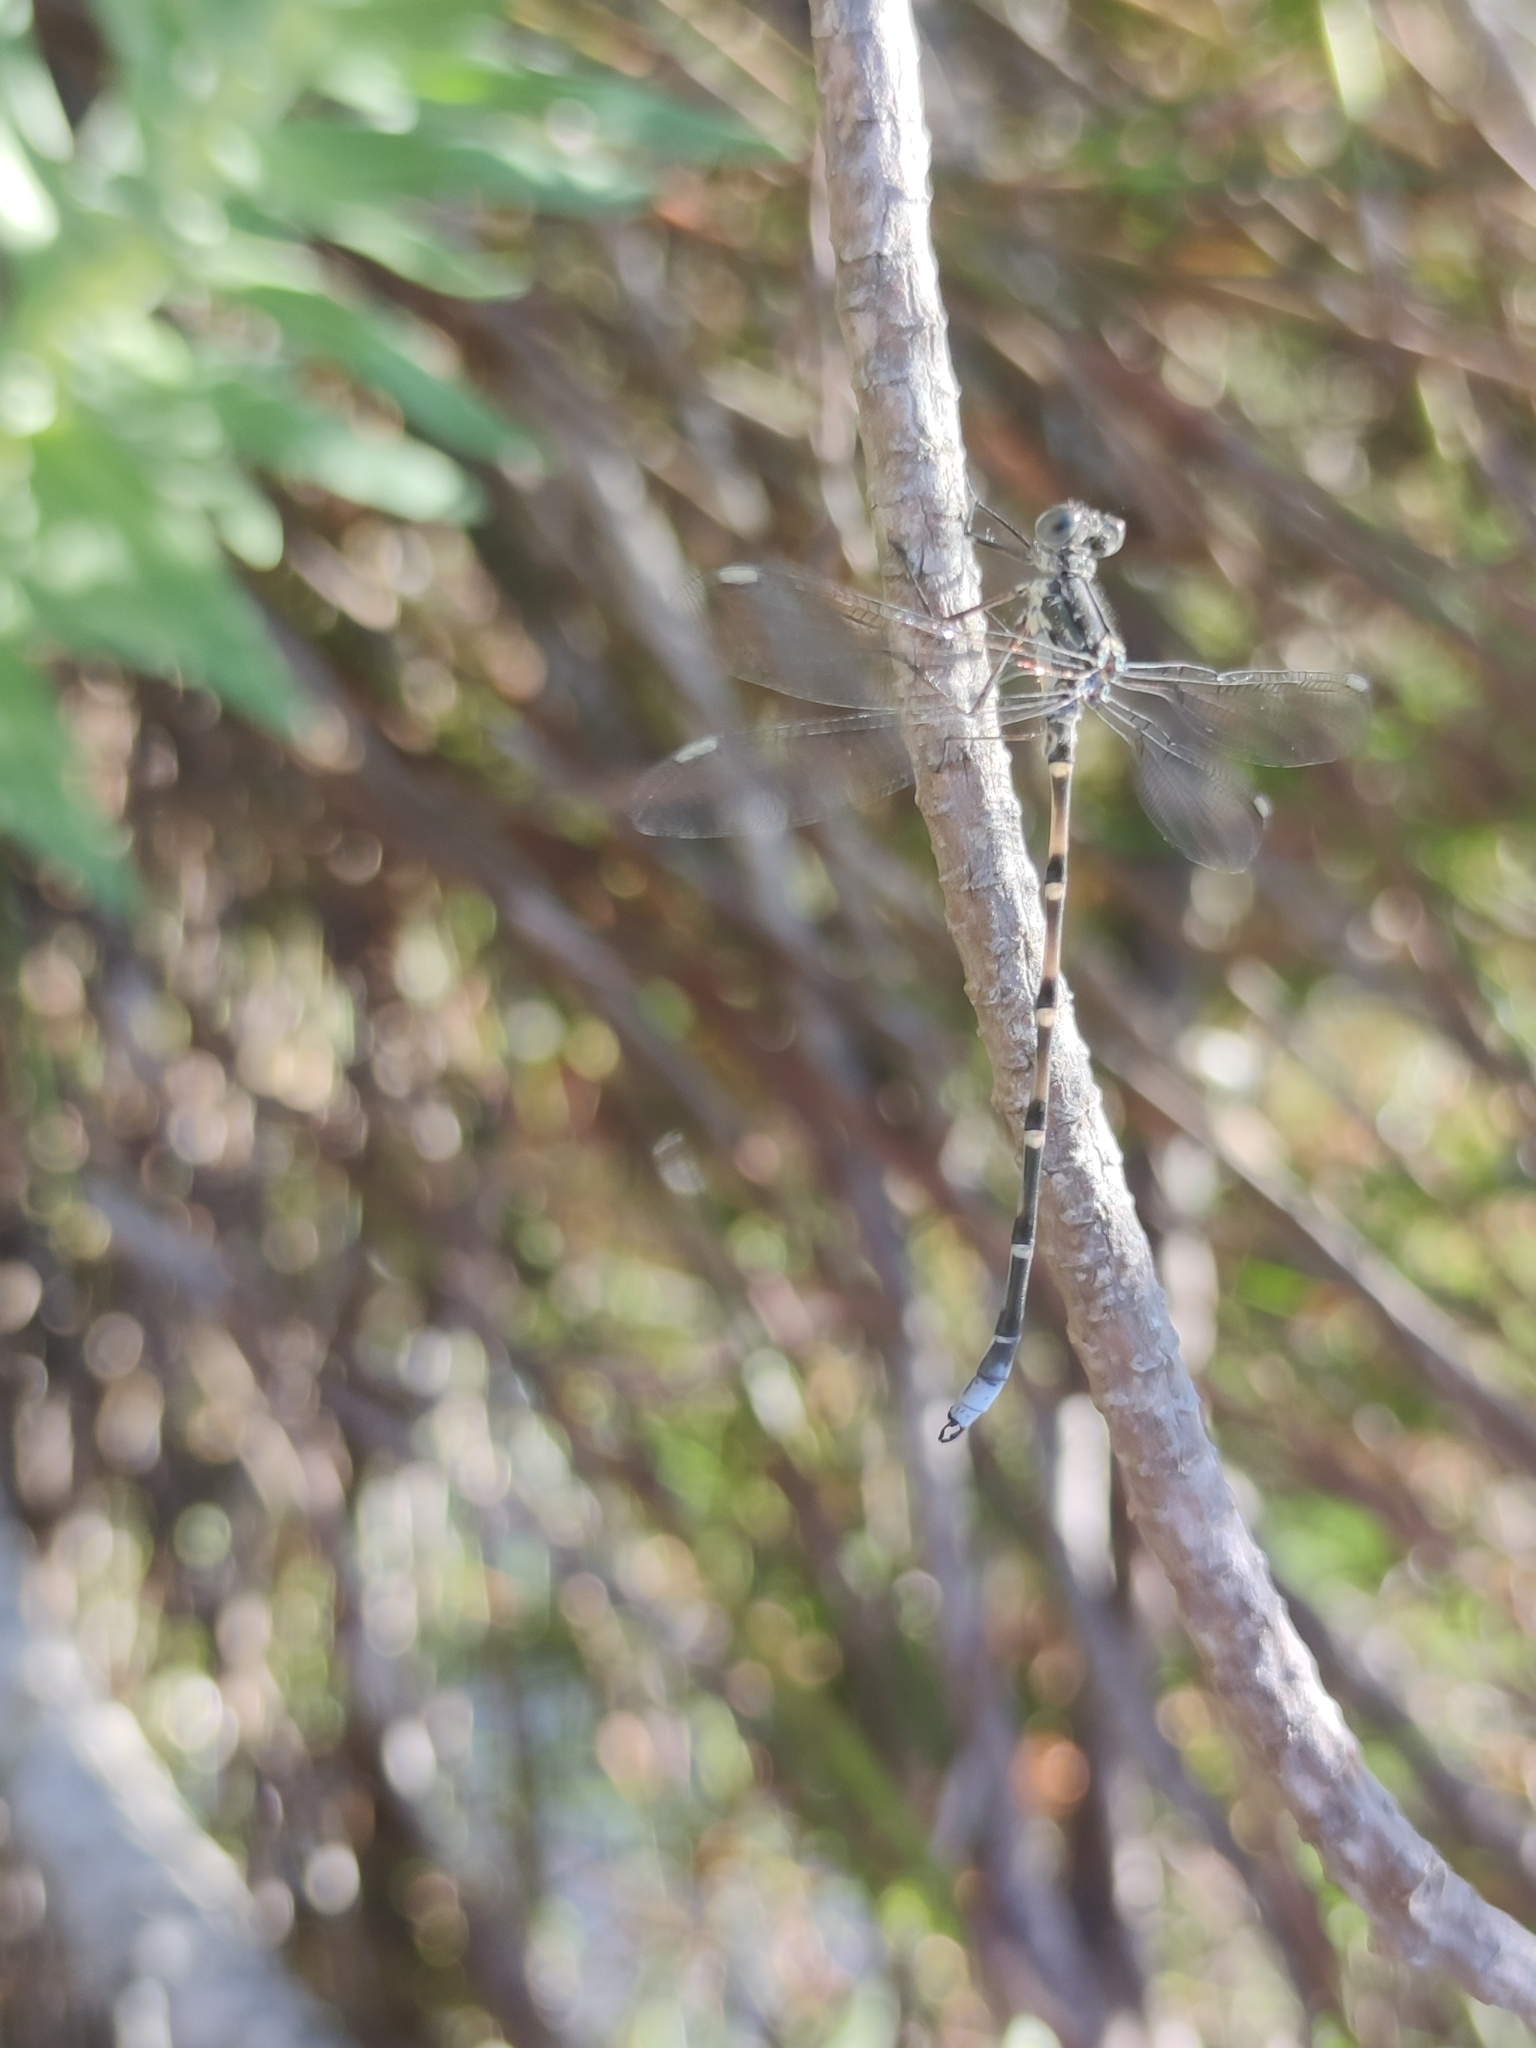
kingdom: Animalia
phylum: Arthropoda
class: Insecta
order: Odonata
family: Synlestidae
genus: Ecchlorolestes
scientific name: Ecchlorolestes peringueyi
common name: Marbled malachite
